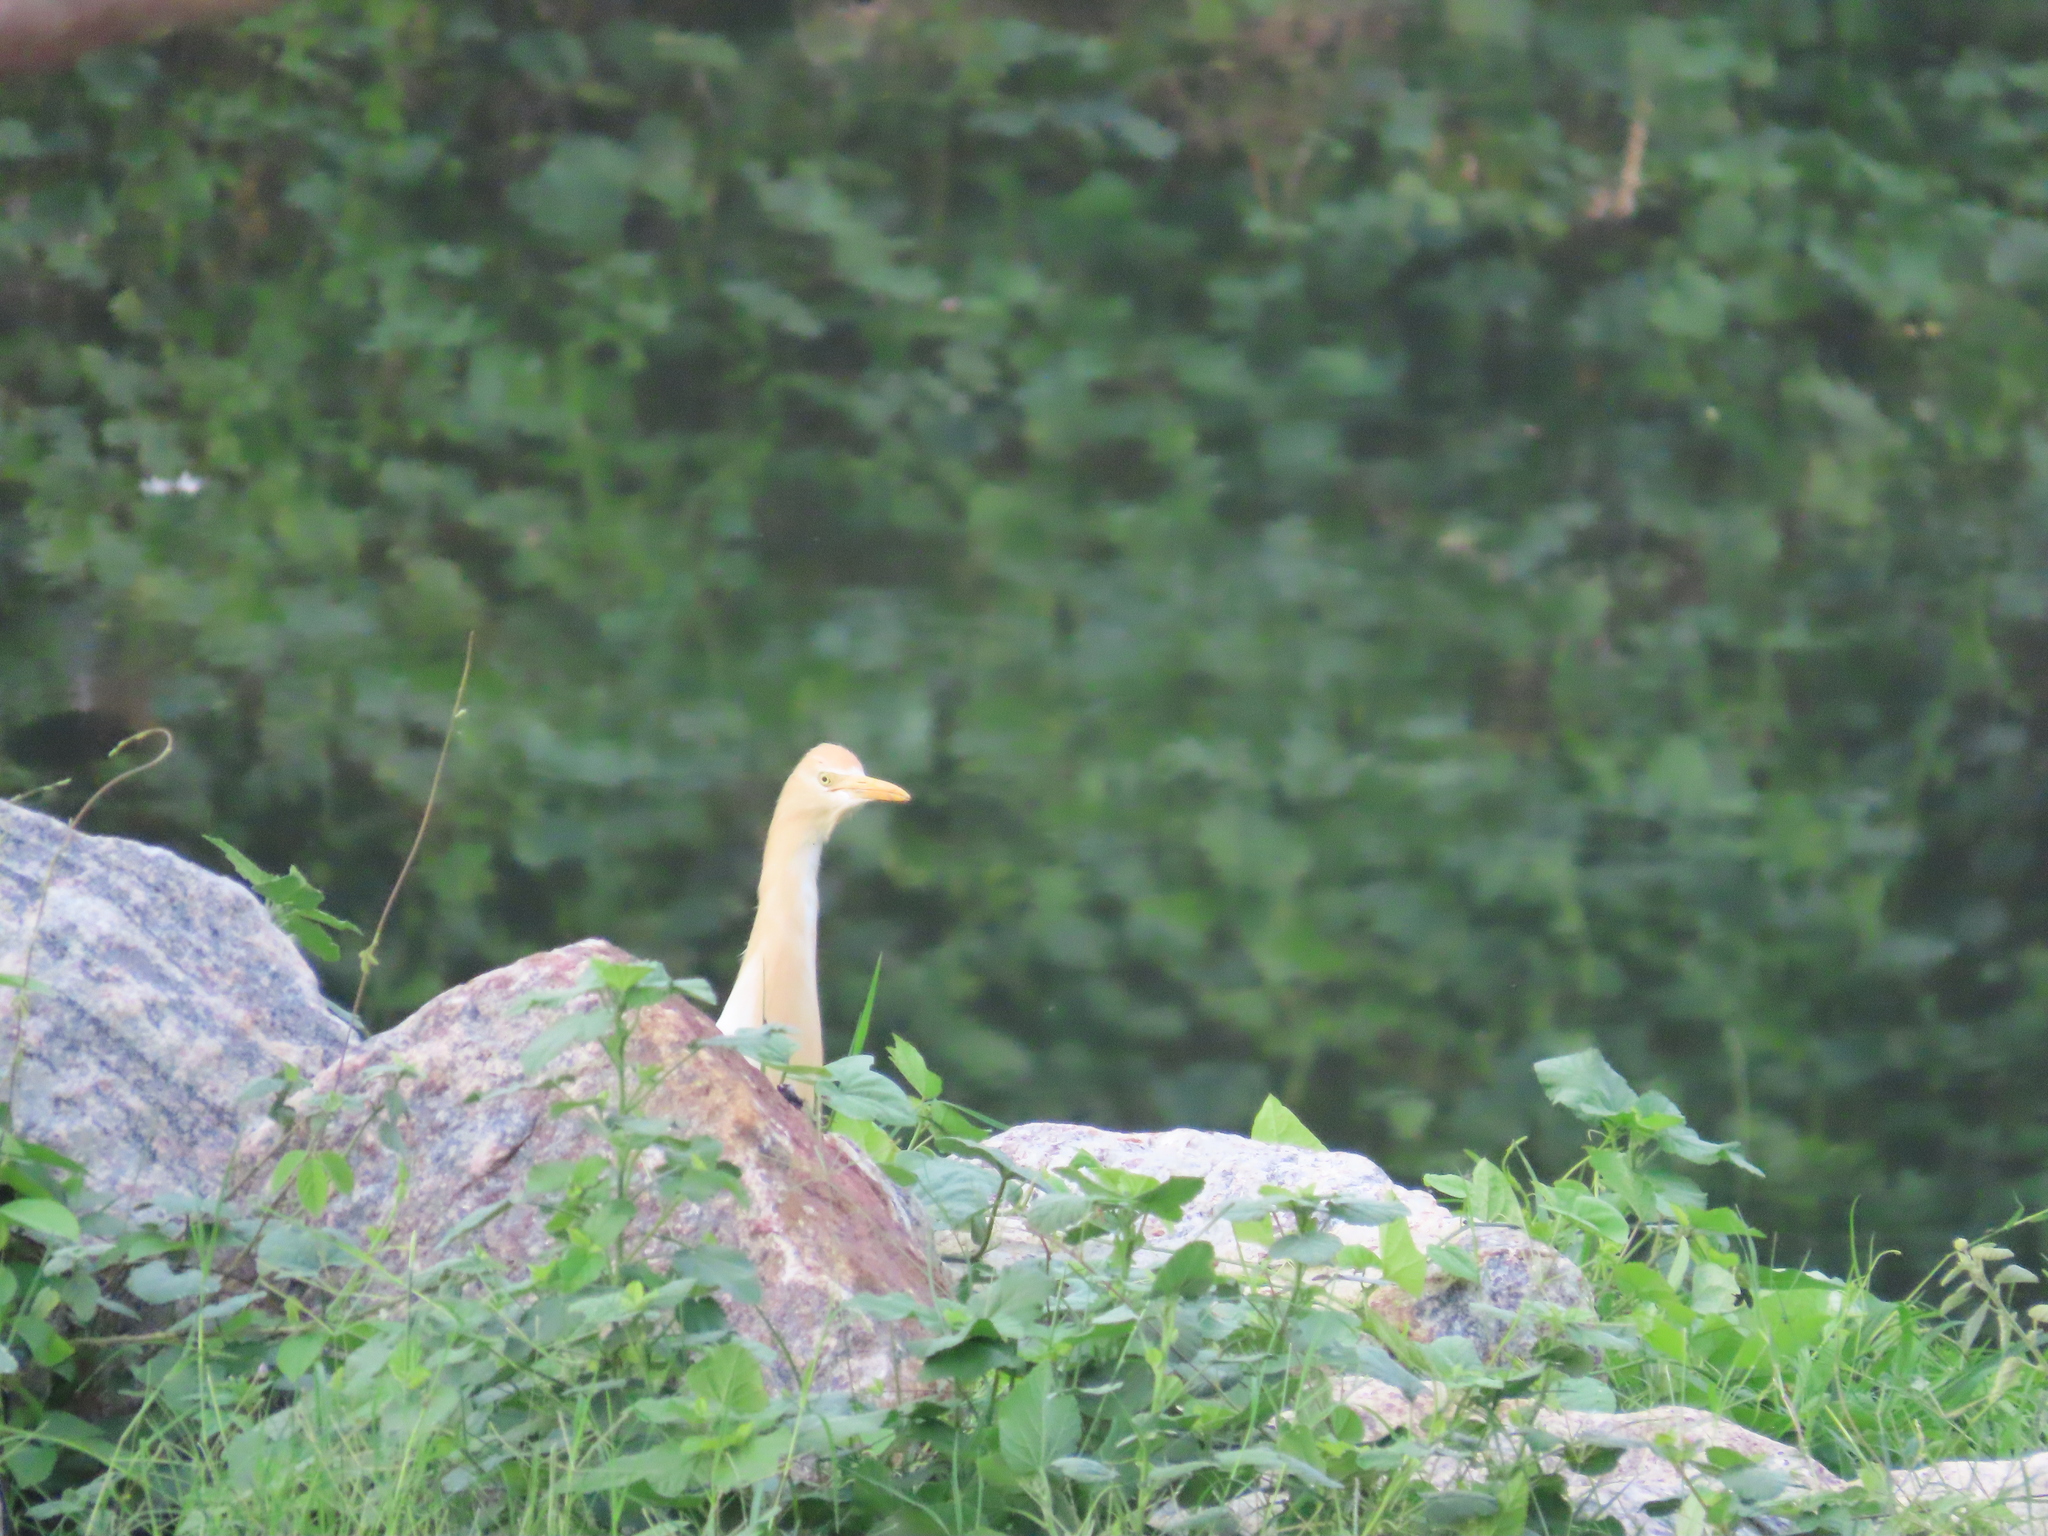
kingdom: Animalia
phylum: Chordata
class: Aves
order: Pelecaniformes
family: Ardeidae
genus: Bubulcus
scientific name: Bubulcus coromandus
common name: Eastern cattle egret
